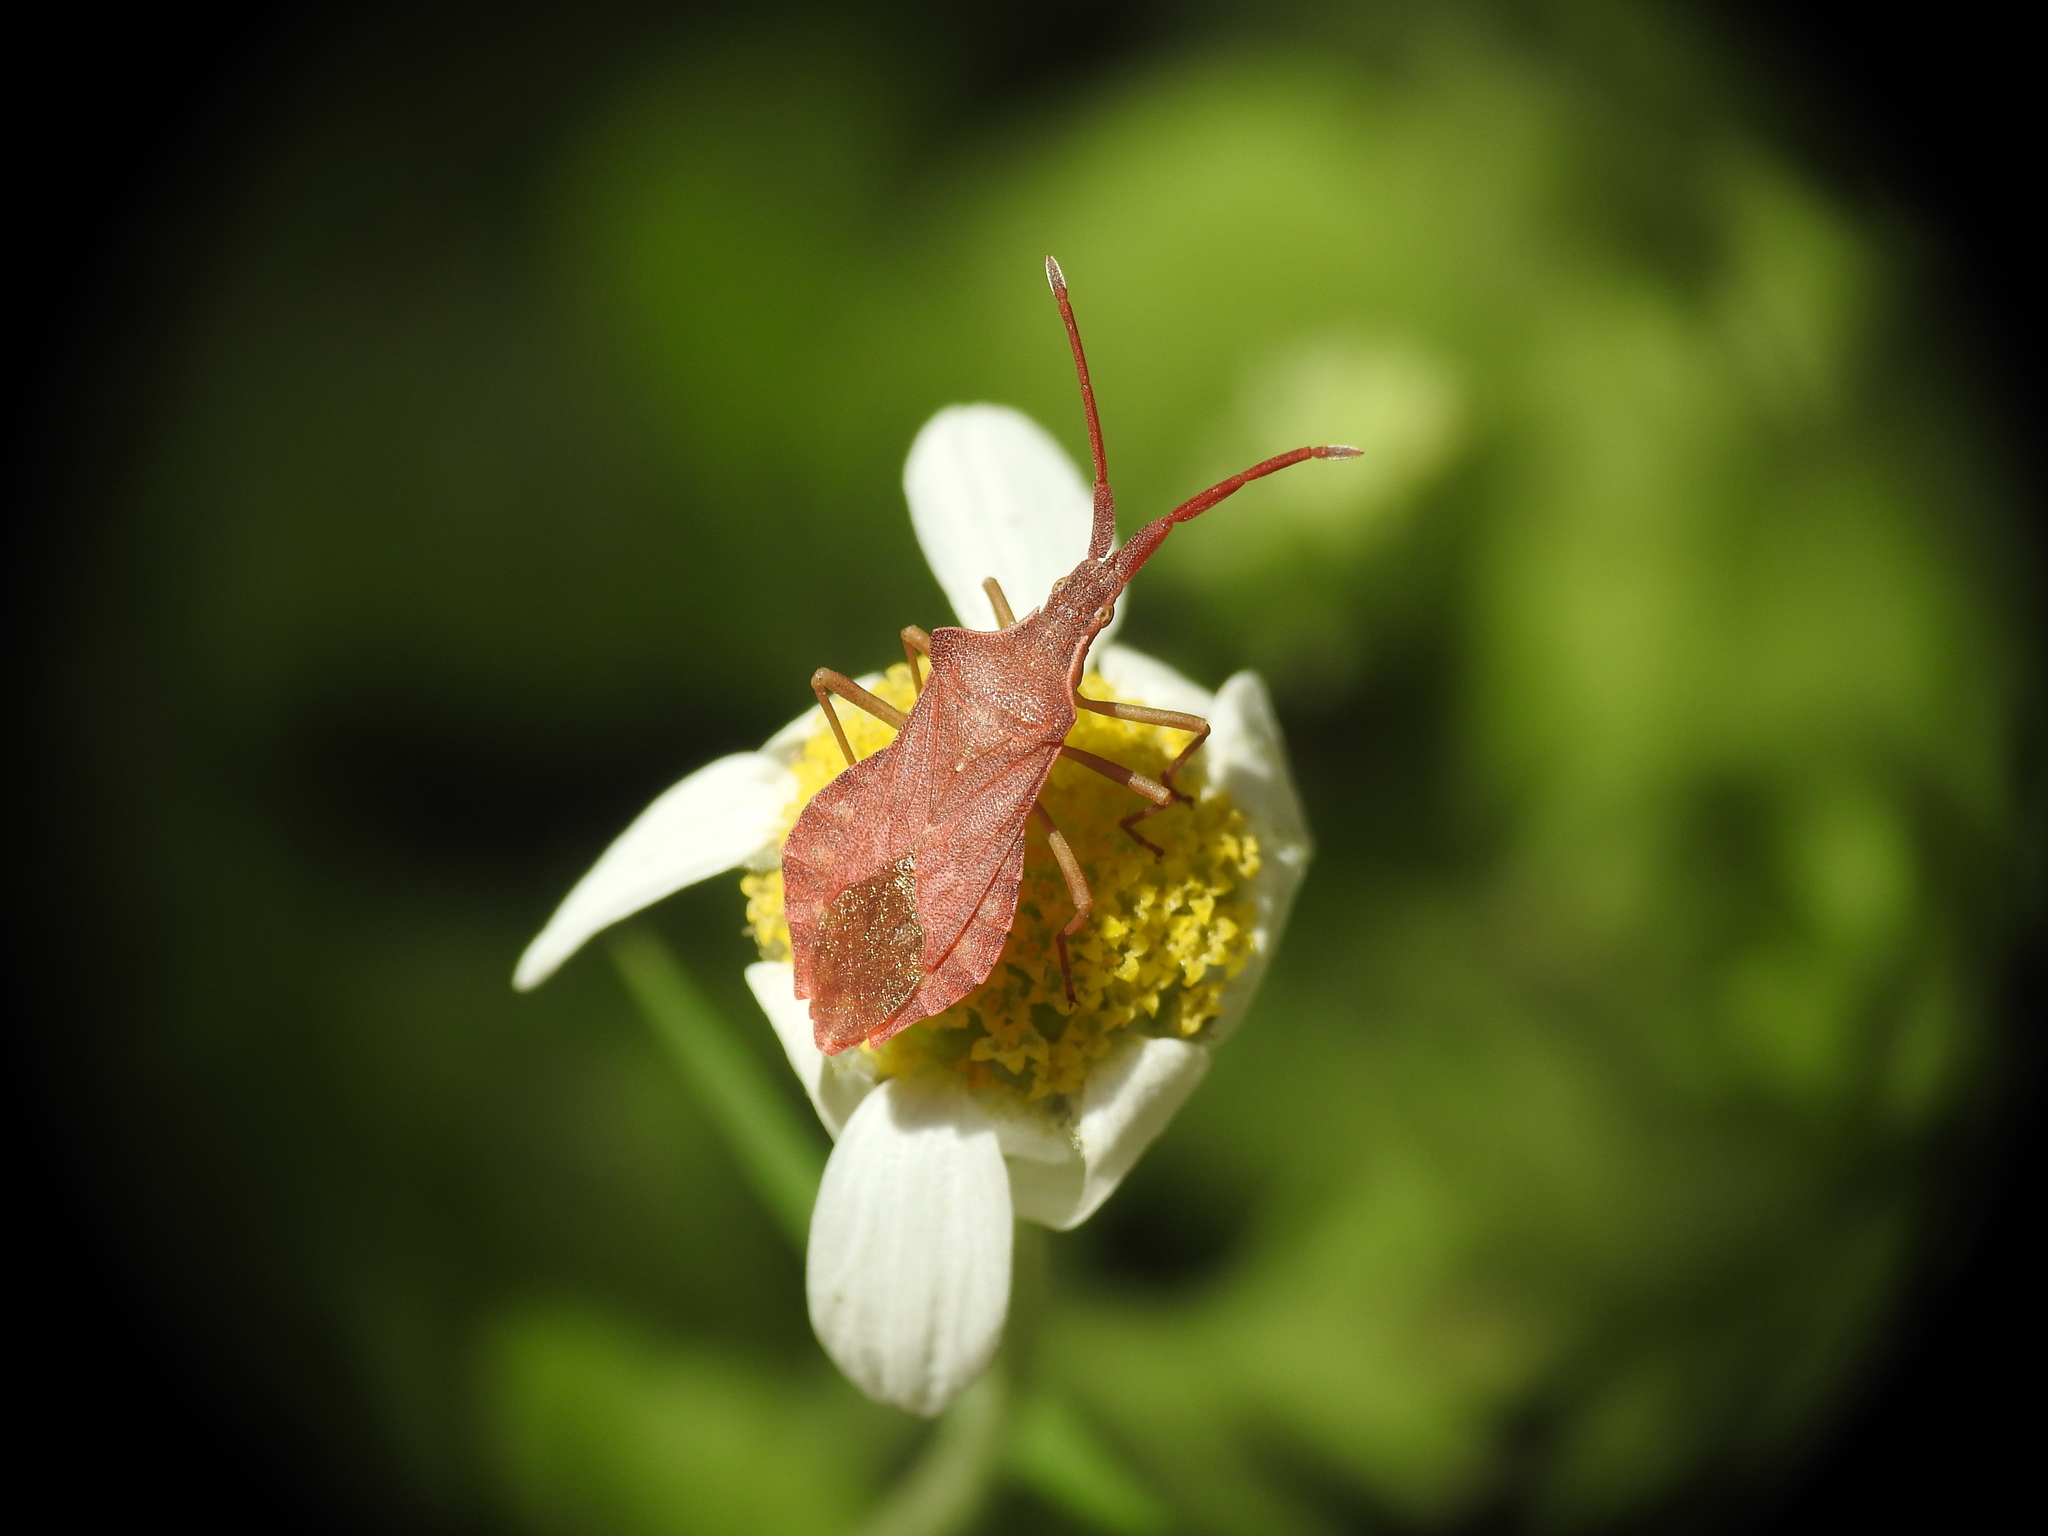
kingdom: Animalia
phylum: Arthropoda
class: Insecta
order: Hemiptera
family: Coreidae
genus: Haploprocta
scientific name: Haploprocta sulcicornis
